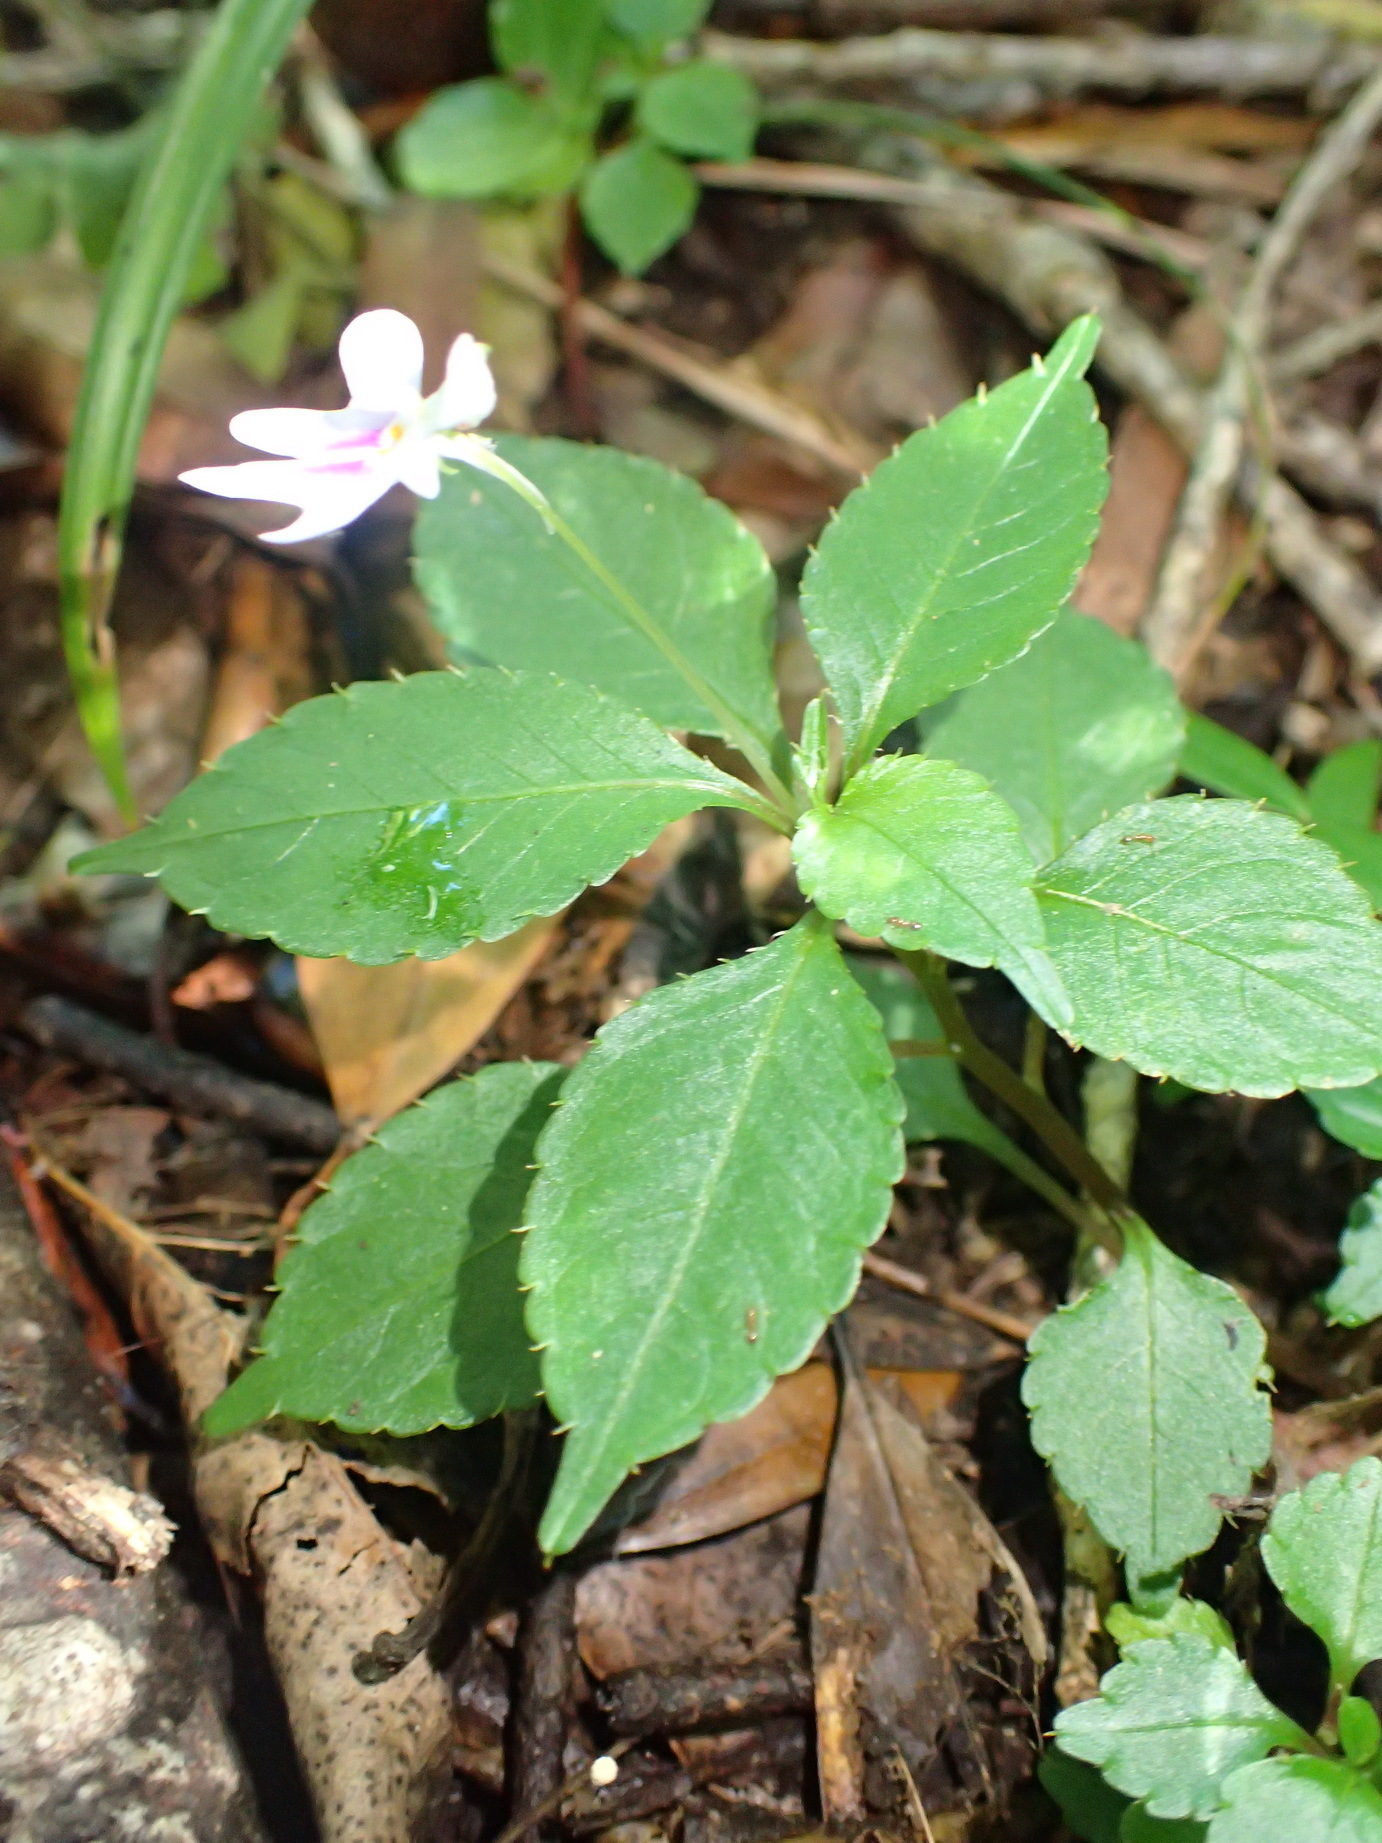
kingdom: Plantae
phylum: Tracheophyta
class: Magnoliopsida
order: Ericales
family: Balsaminaceae
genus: Impatiens
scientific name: Impatiens hochstetteri
